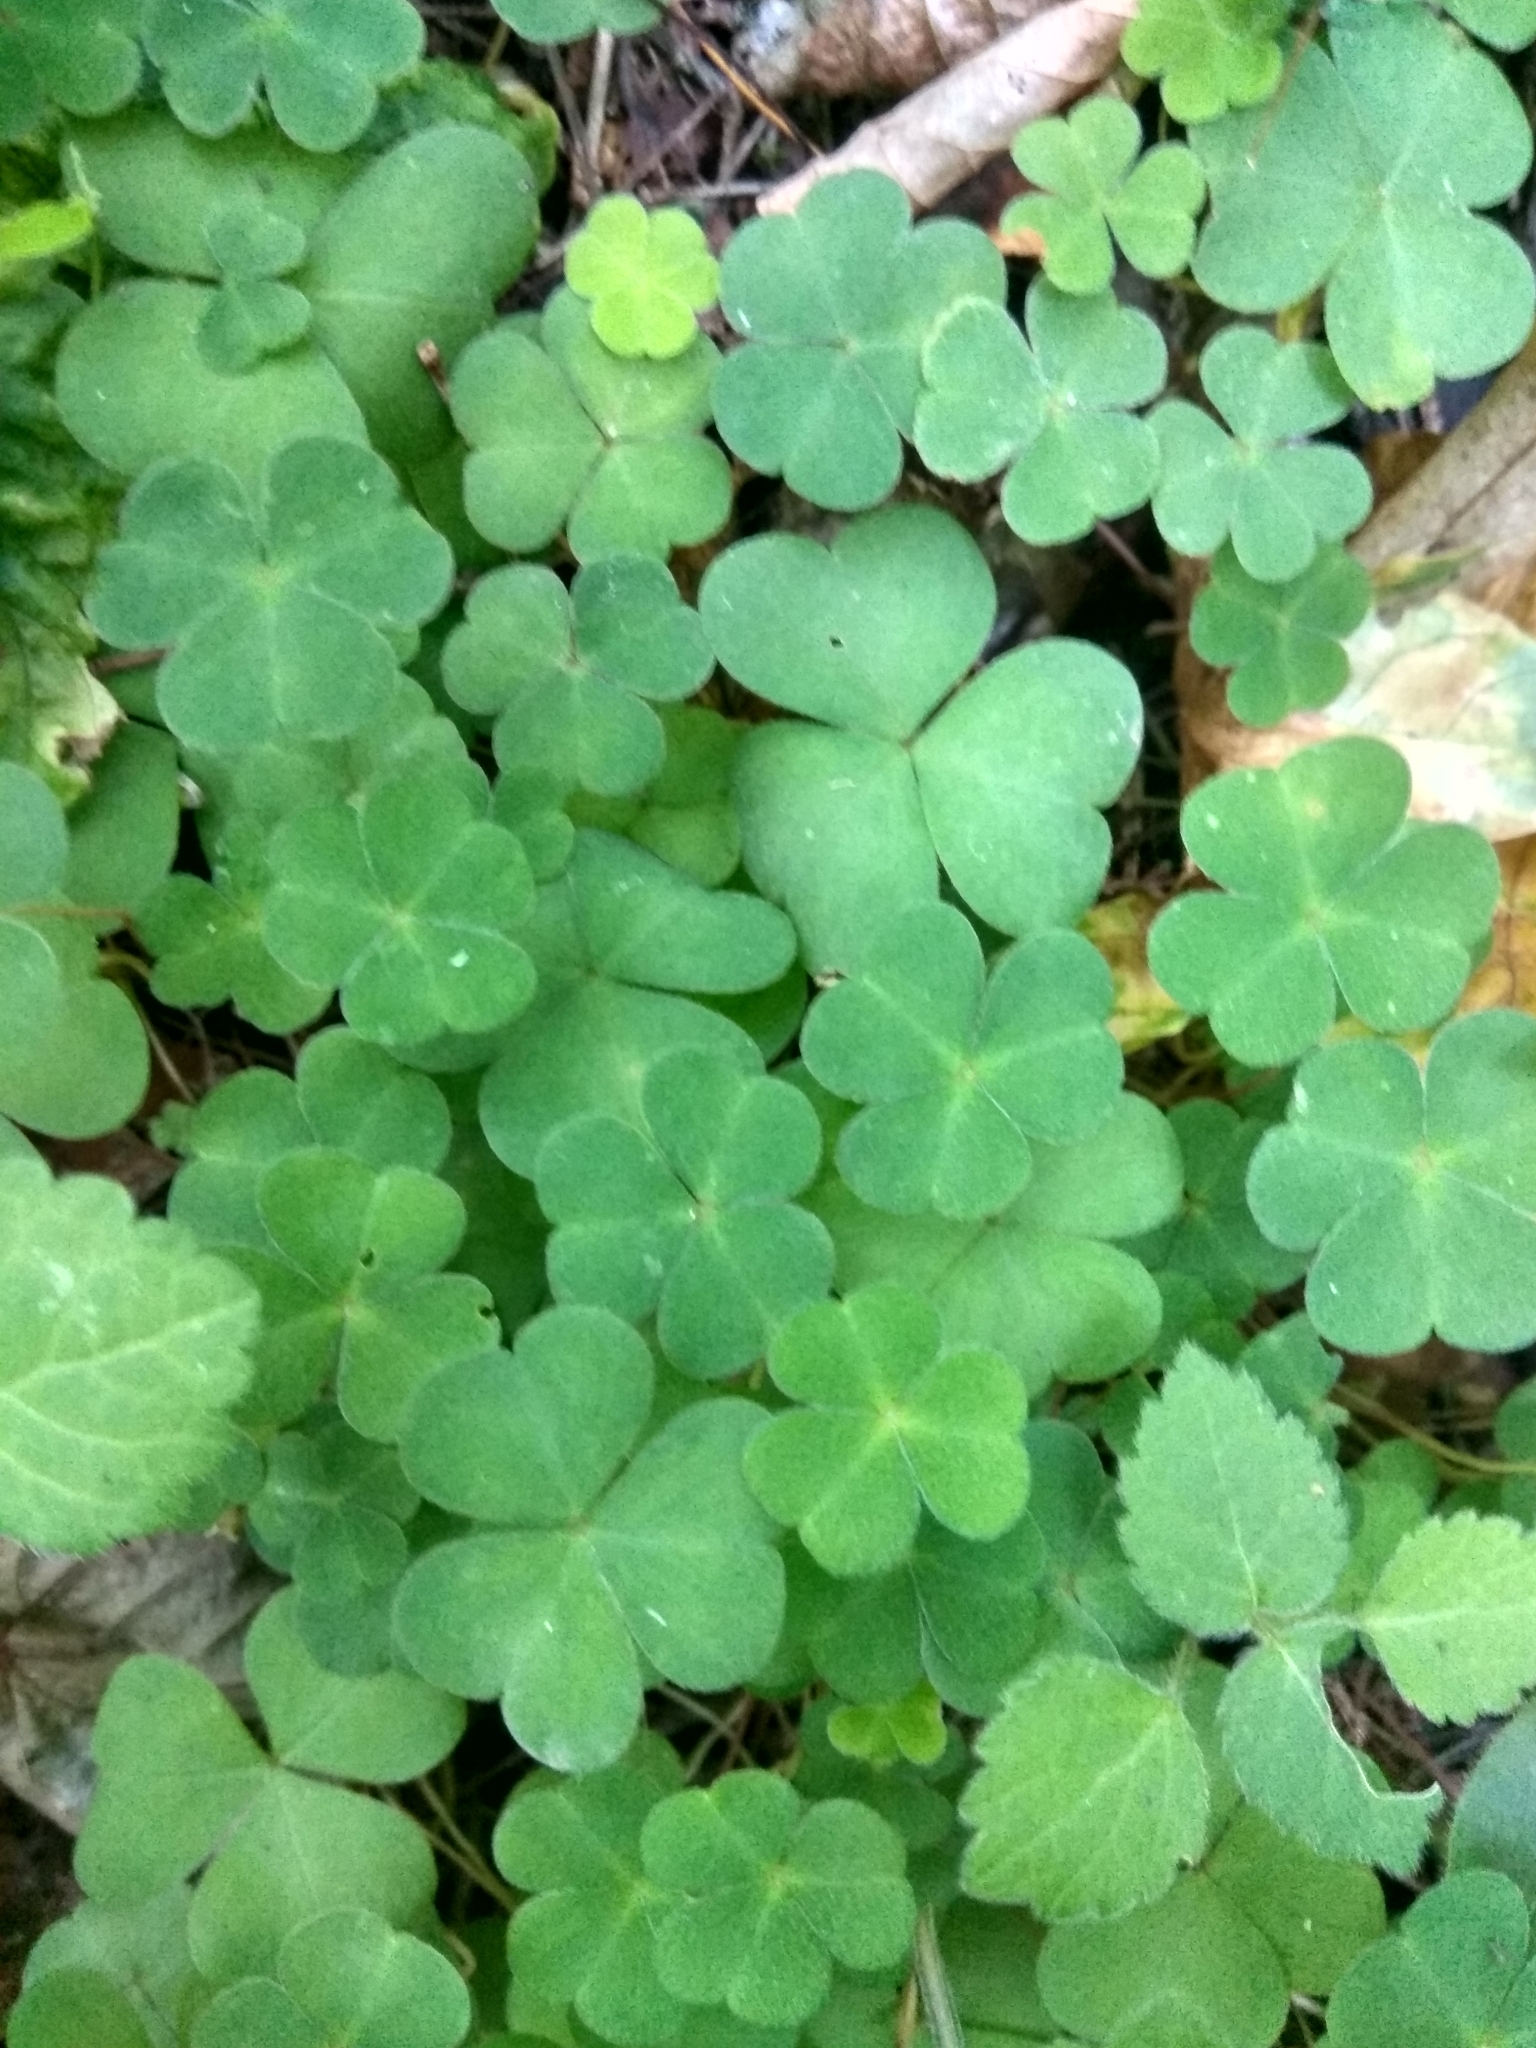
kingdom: Plantae
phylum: Tracheophyta
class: Magnoliopsida
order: Oxalidales
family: Oxalidaceae
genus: Oxalis
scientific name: Oxalis acetosella
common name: Wood-sorrel
